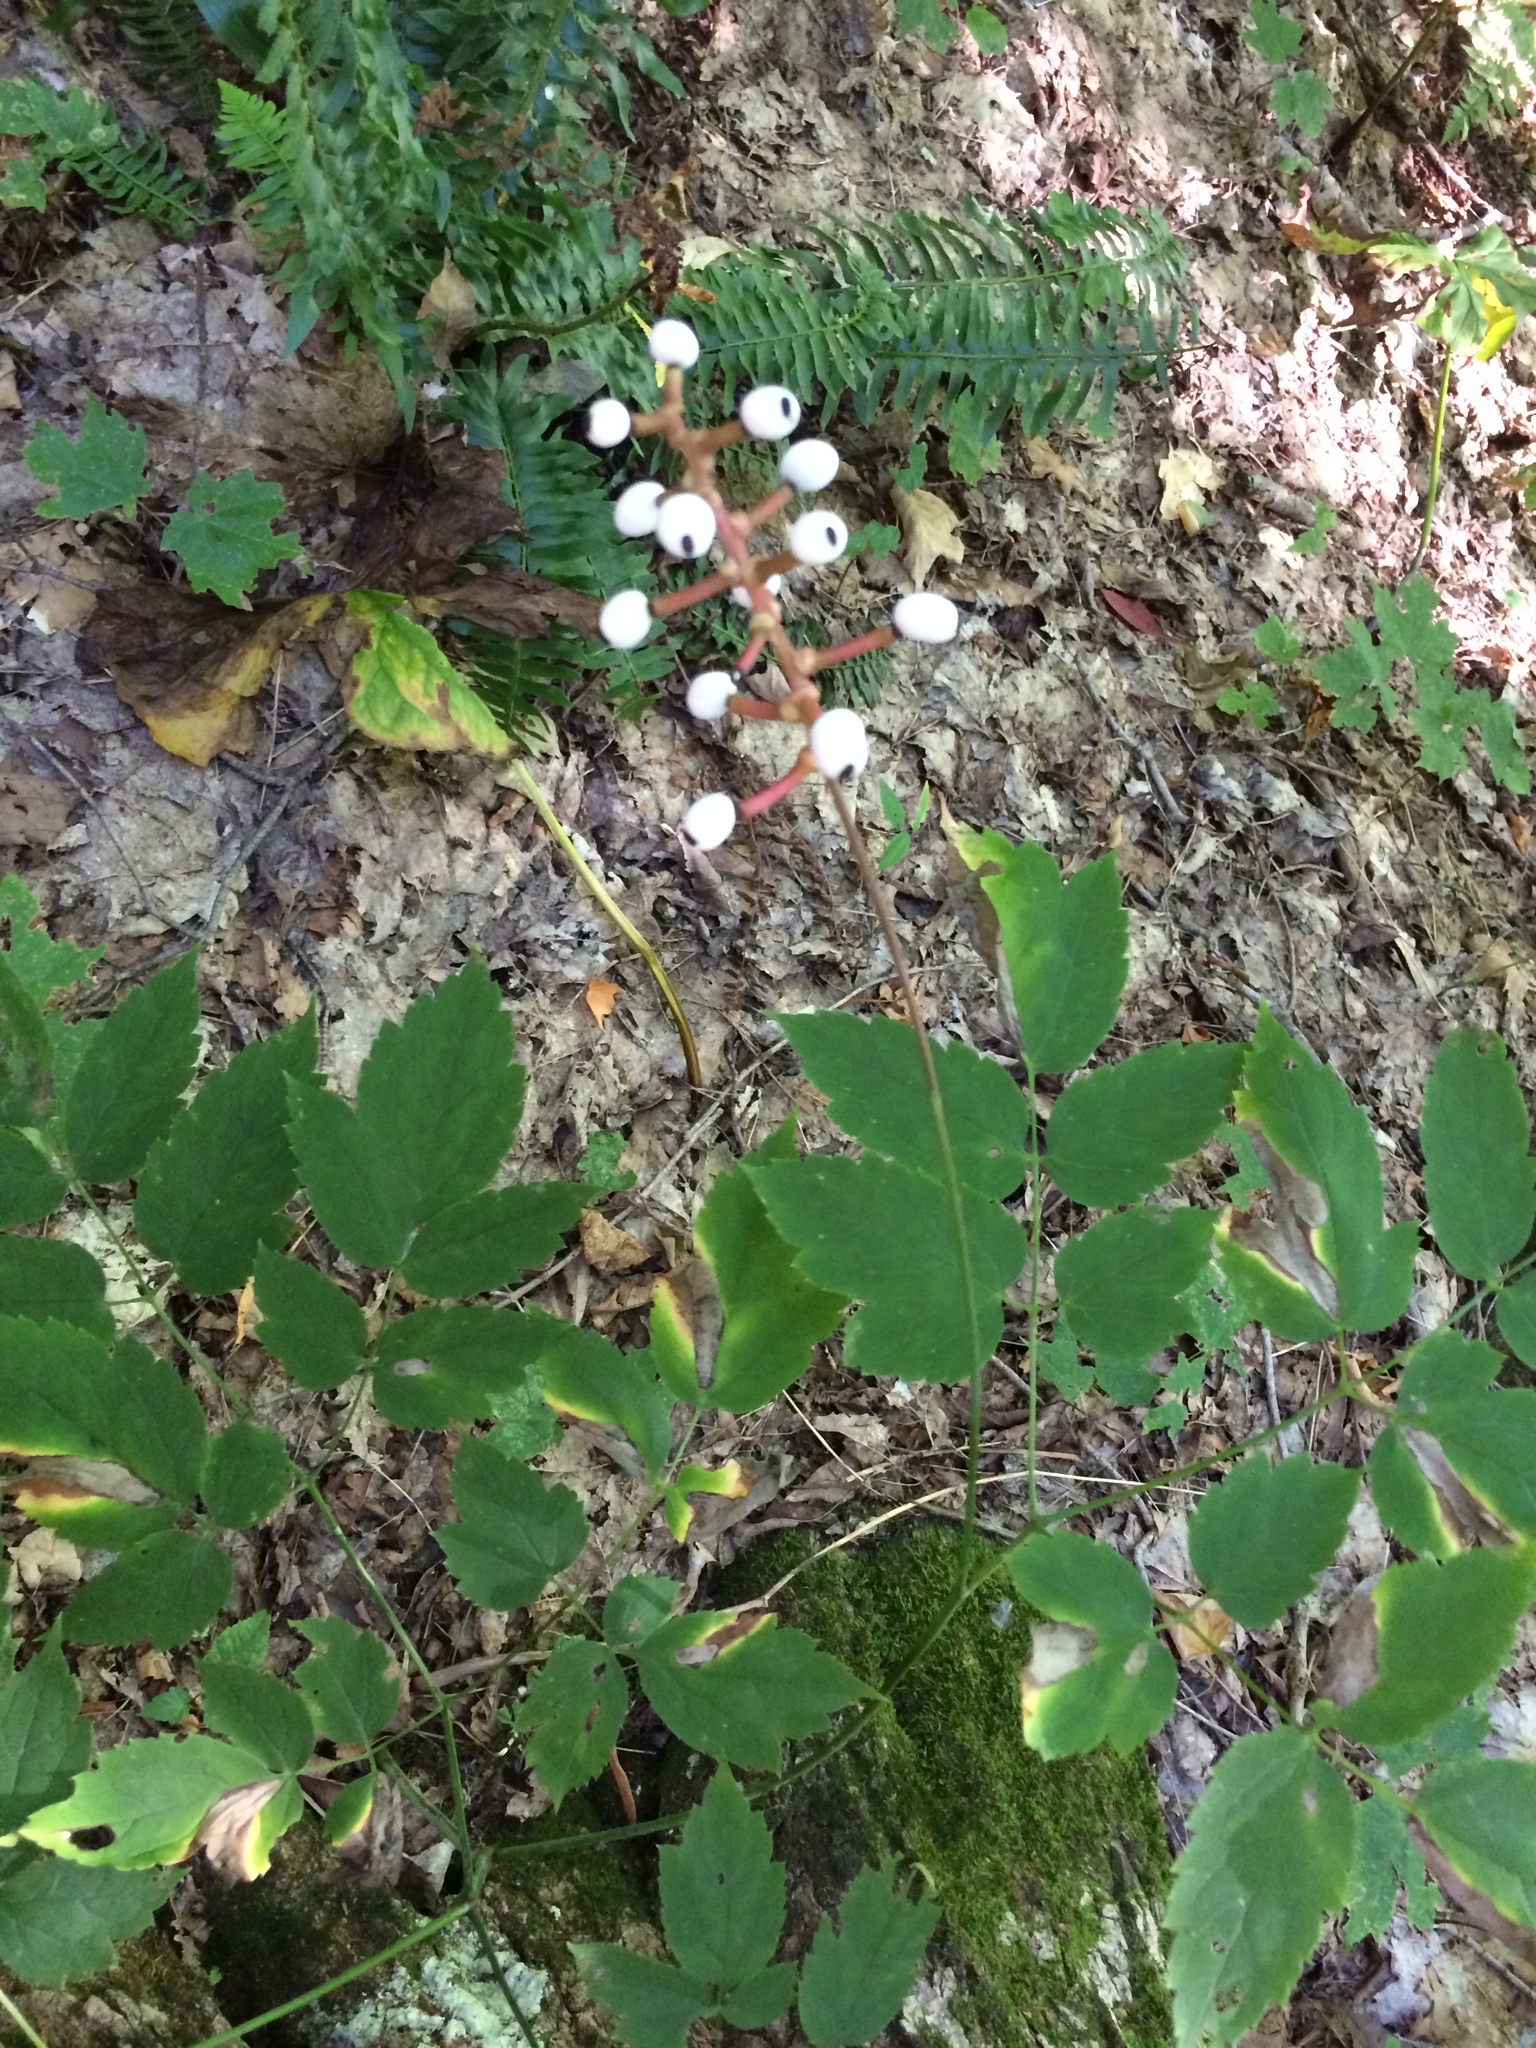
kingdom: Plantae
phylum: Tracheophyta
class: Magnoliopsida
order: Ranunculales
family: Ranunculaceae
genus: Actaea
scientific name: Actaea pachypoda
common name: Doll's-eyes
